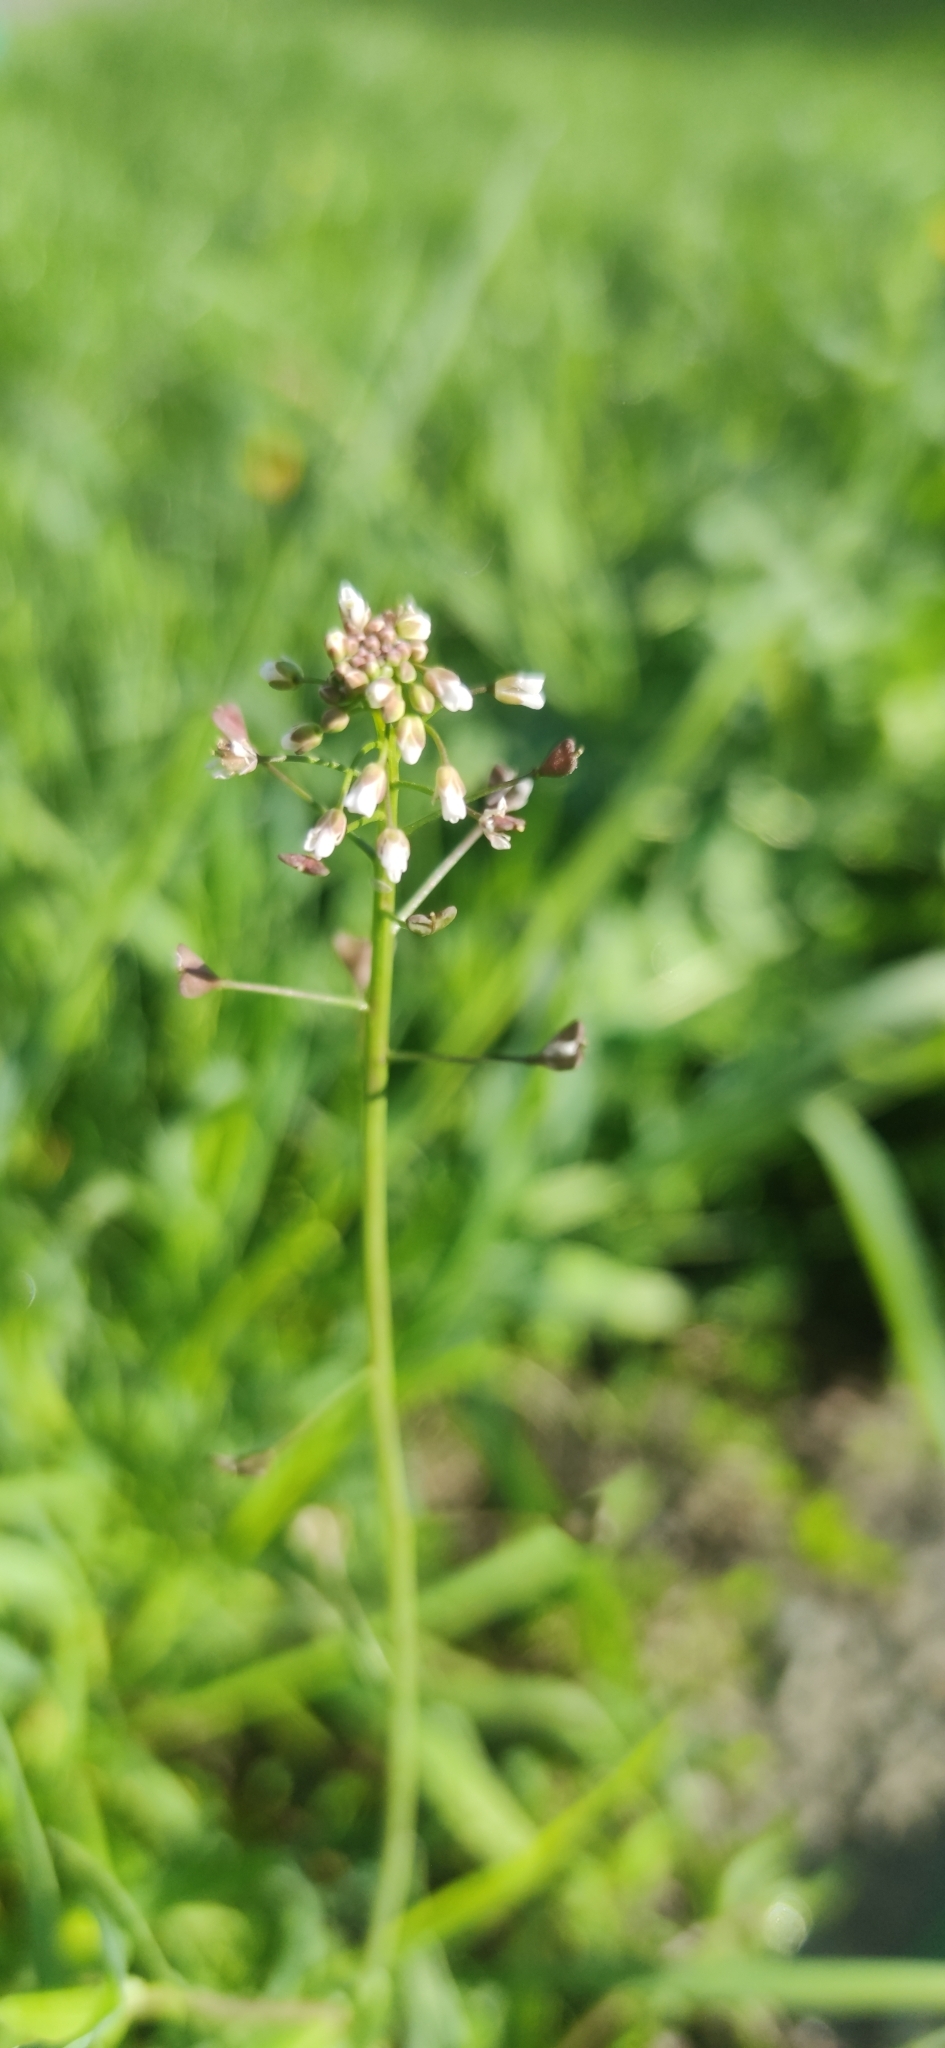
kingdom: Plantae
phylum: Tracheophyta
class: Magnoliopsida
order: Brassicales
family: Brassicaceae
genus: Capsella
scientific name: Capsella bursa-pastoris
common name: Shepherd's purse
